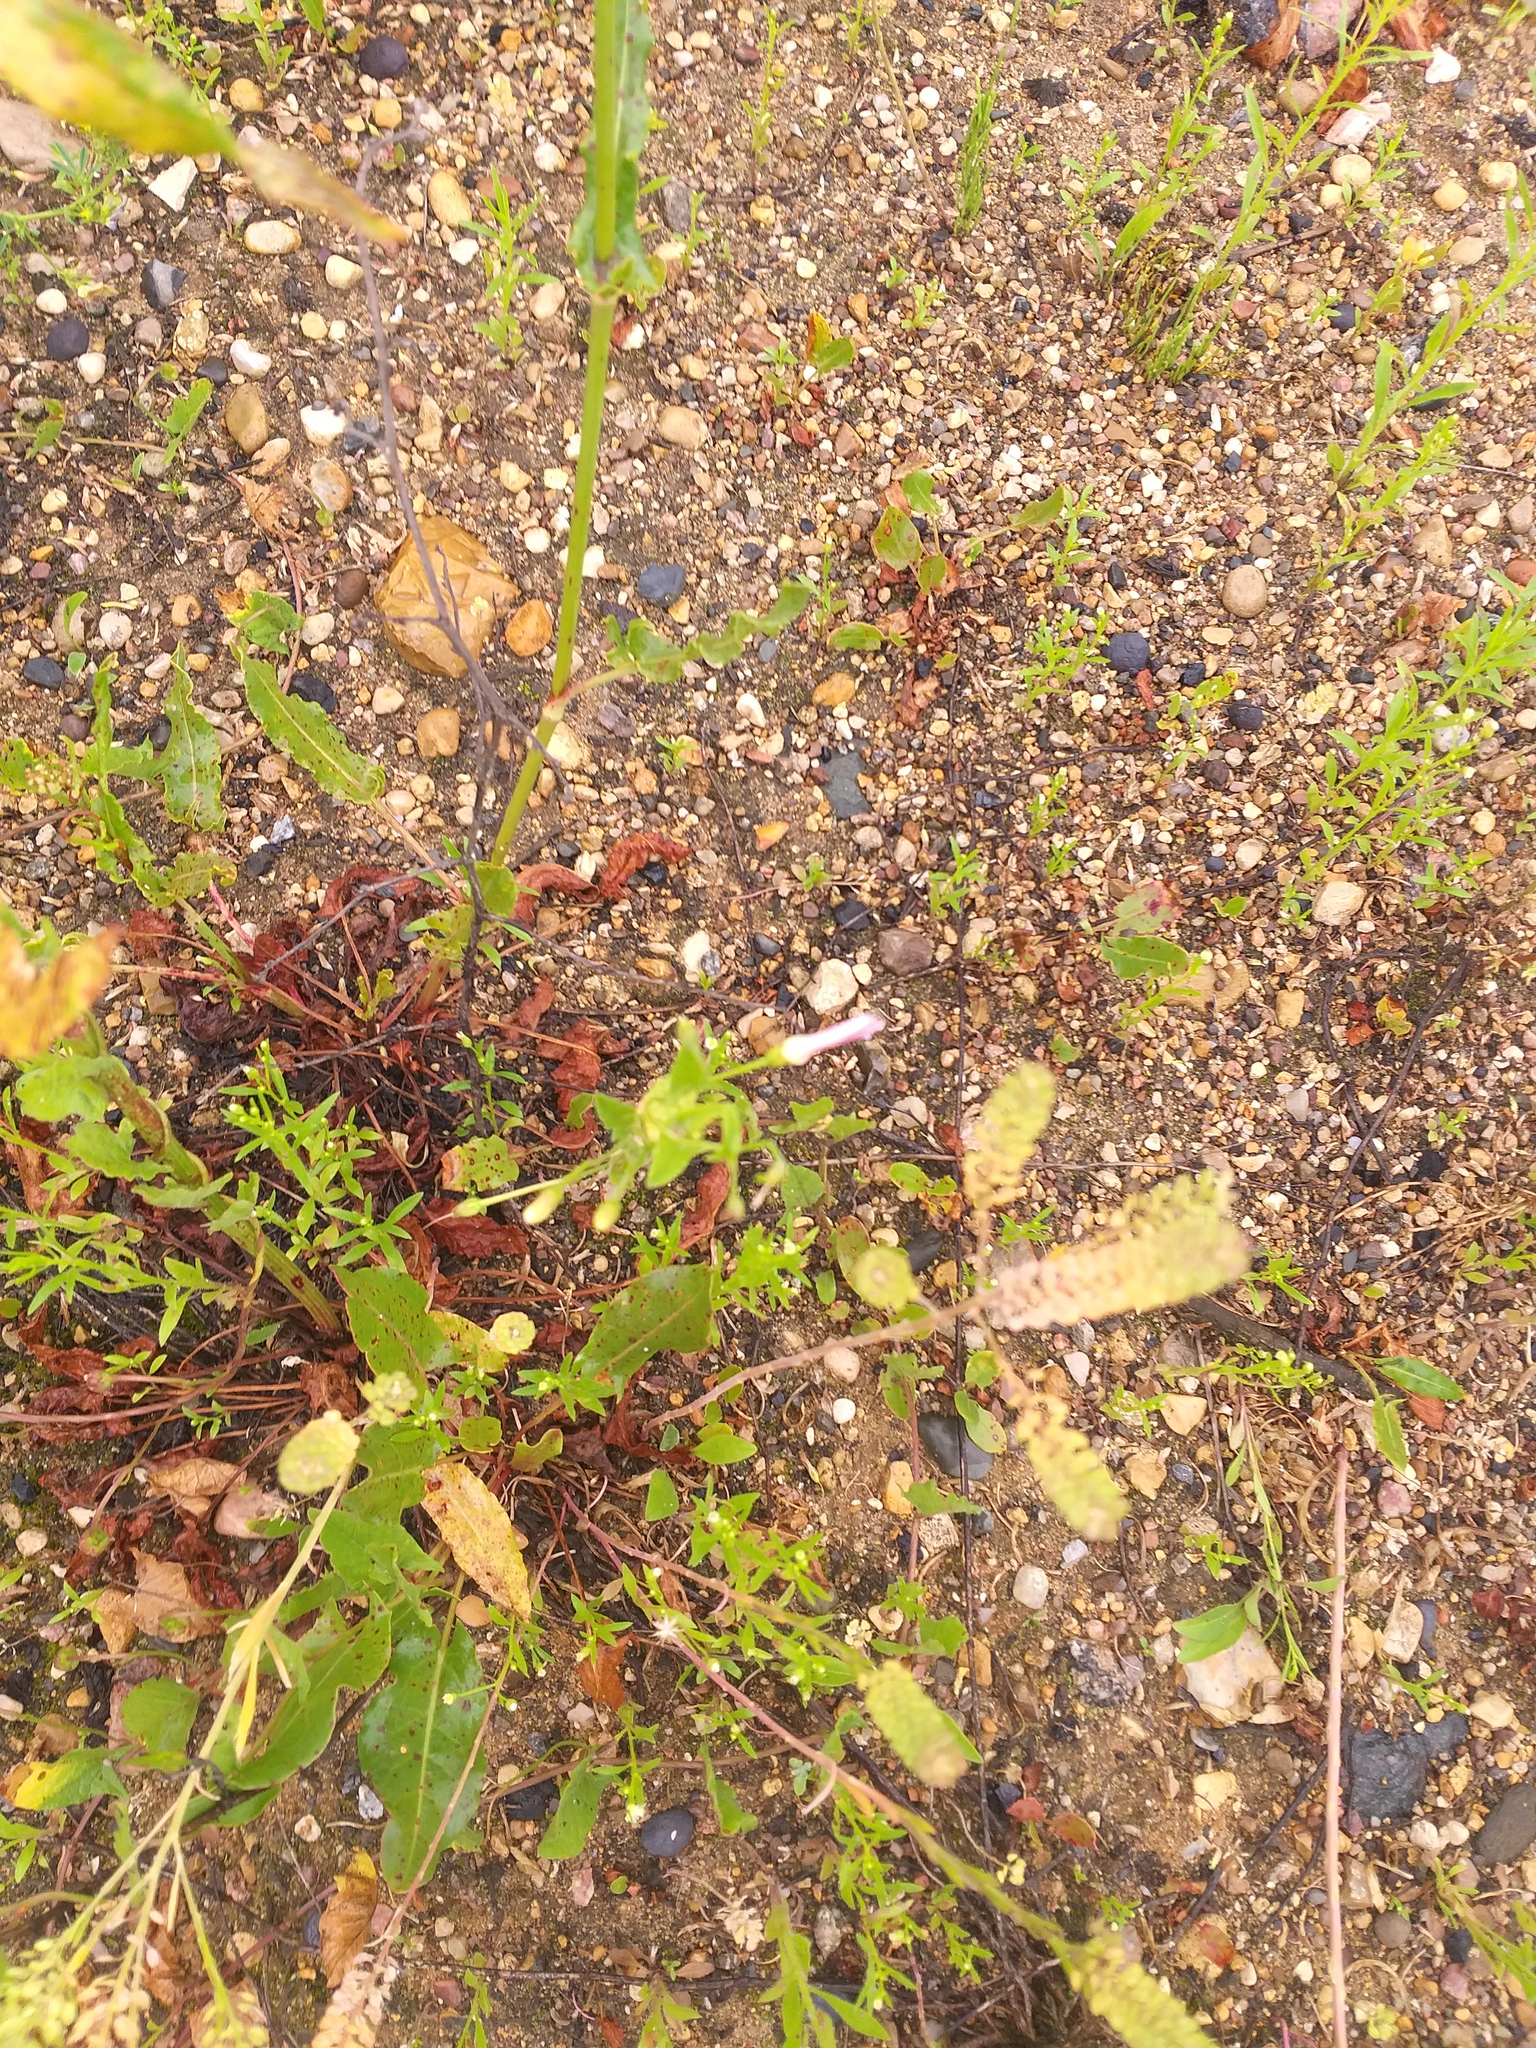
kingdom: Plantae
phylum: Tracheophyta
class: Magnoliopsida
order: Solanales
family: Convolvulaceae
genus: Convolvulus
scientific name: Convolvulus arvensis
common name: Field bindweed
